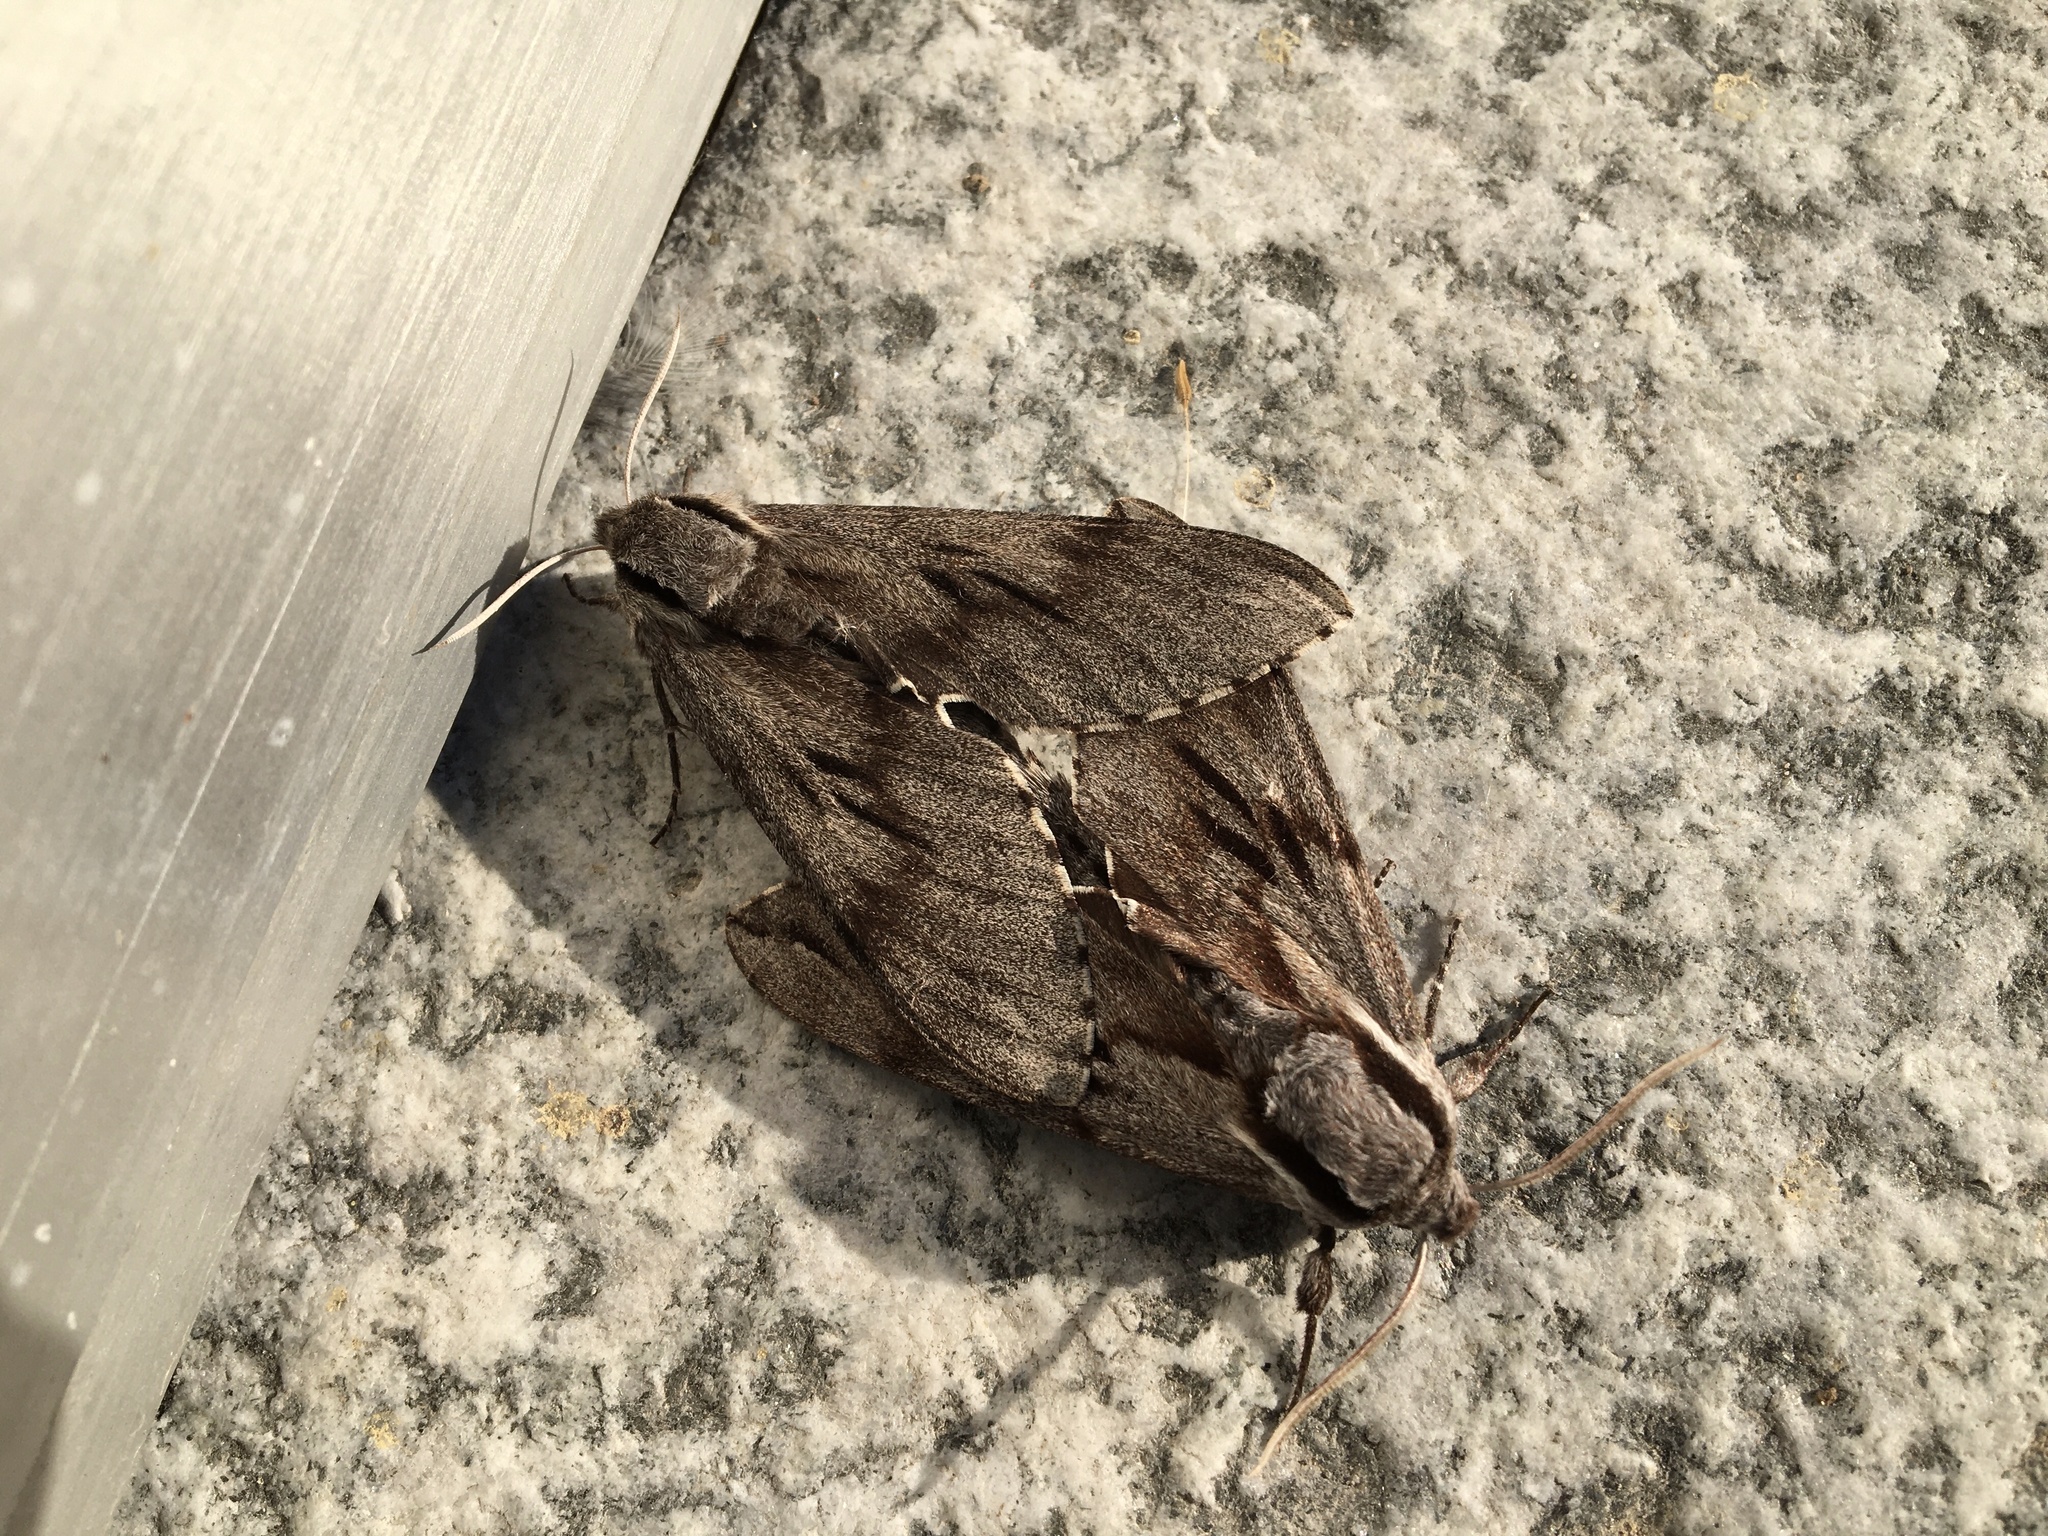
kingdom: Animalia
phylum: Arthropoda
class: Insecta
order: Lepidoptera
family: Sphingidae
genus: Sphinx
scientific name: Sphinx pinastri
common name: Pine hawk-moth
